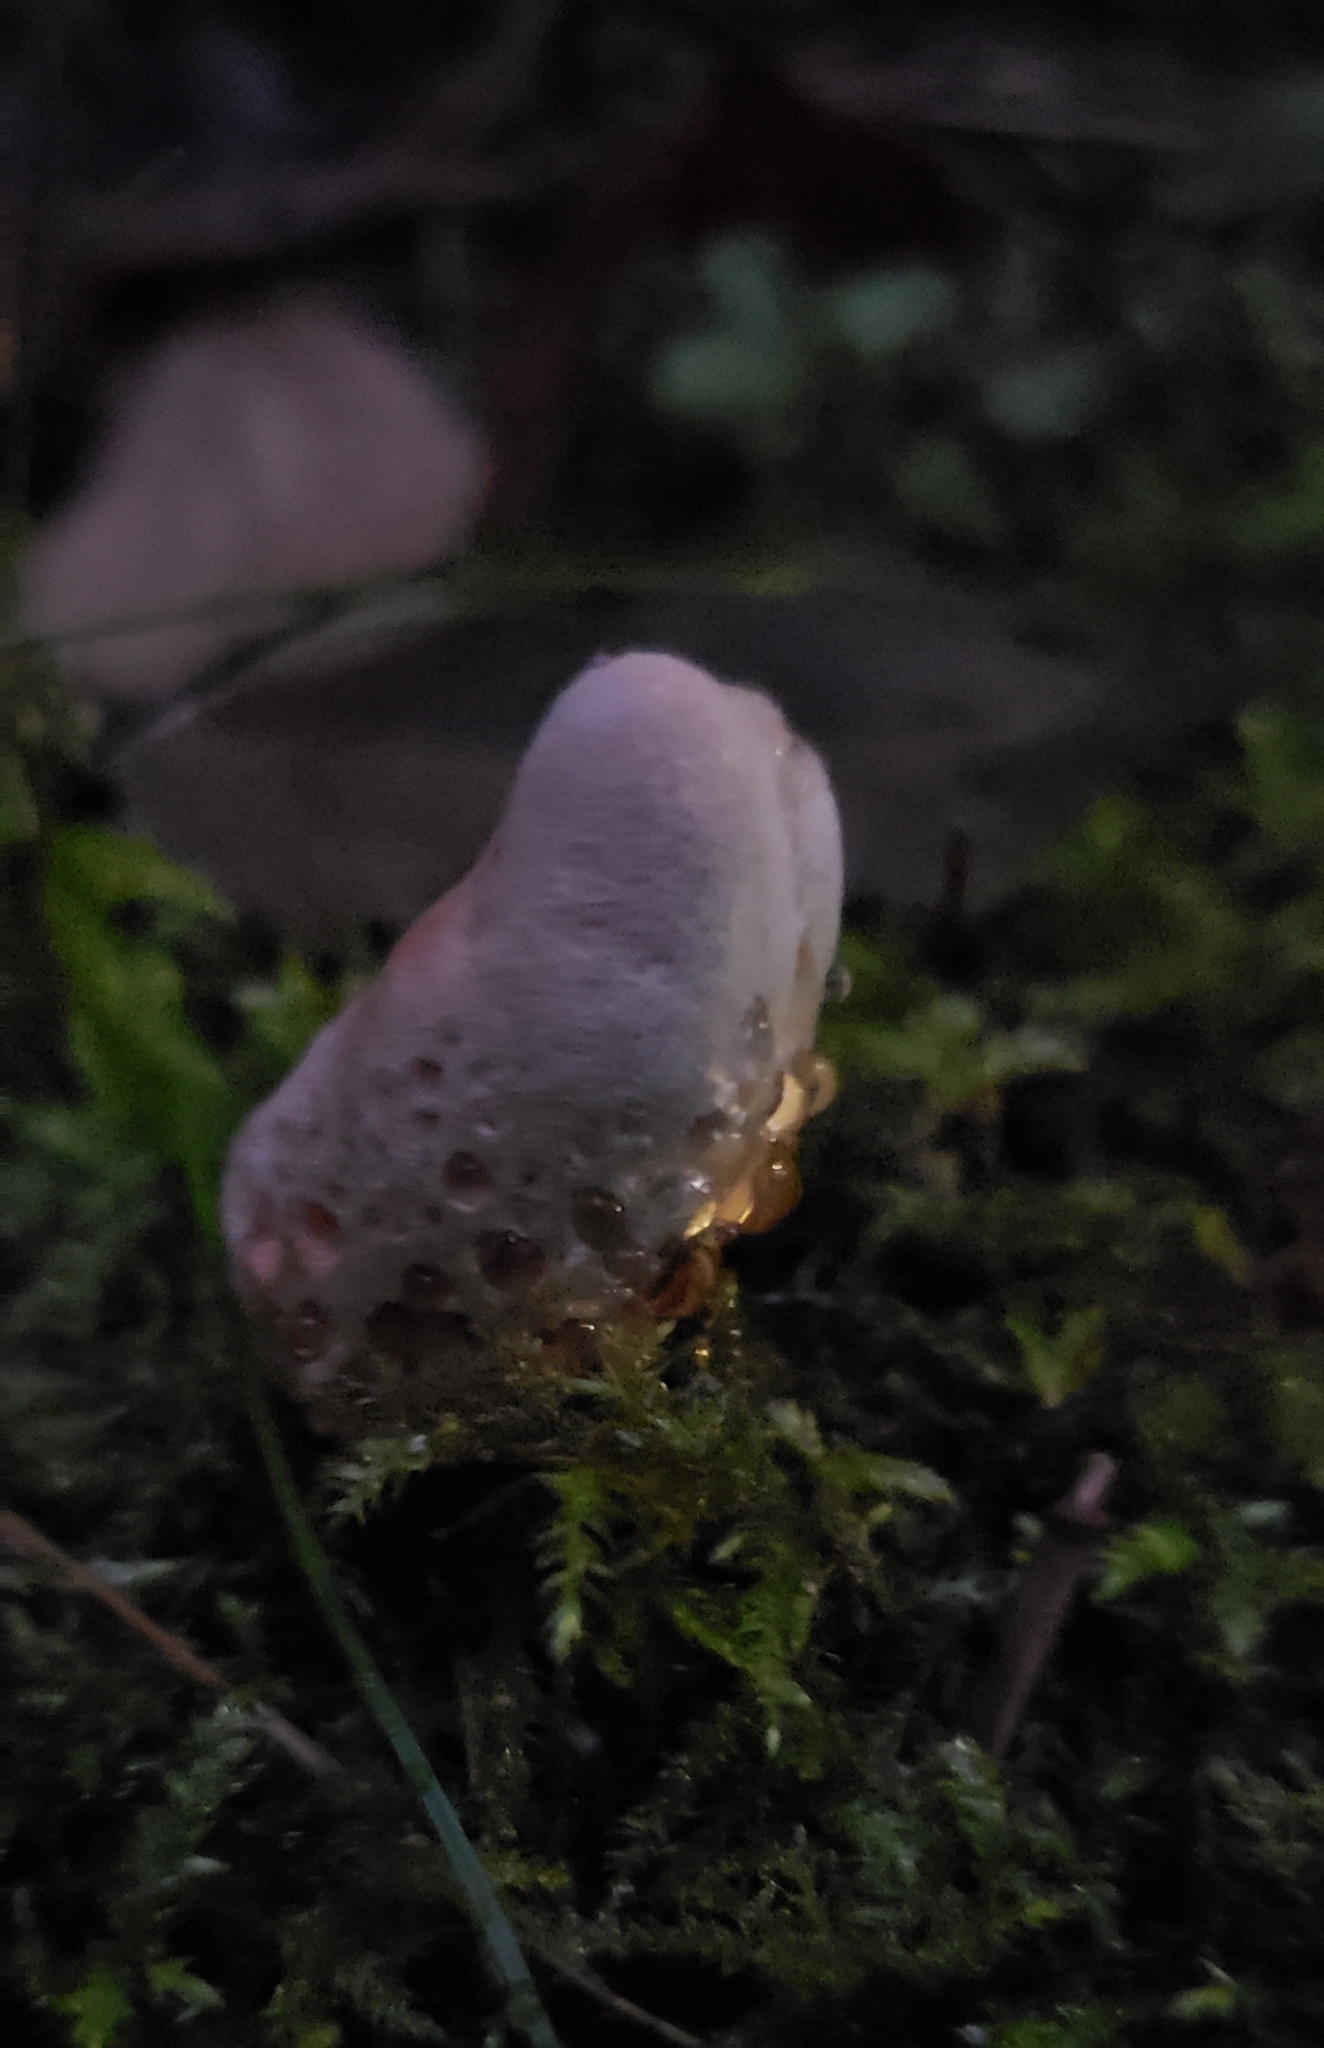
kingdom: Fungi
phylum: Basidiomycota
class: Agaricomycetes
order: Polyporales
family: Podoscyphaceae
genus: Abortiporus
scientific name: Abortiporus biennis
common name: Blushing rosette
